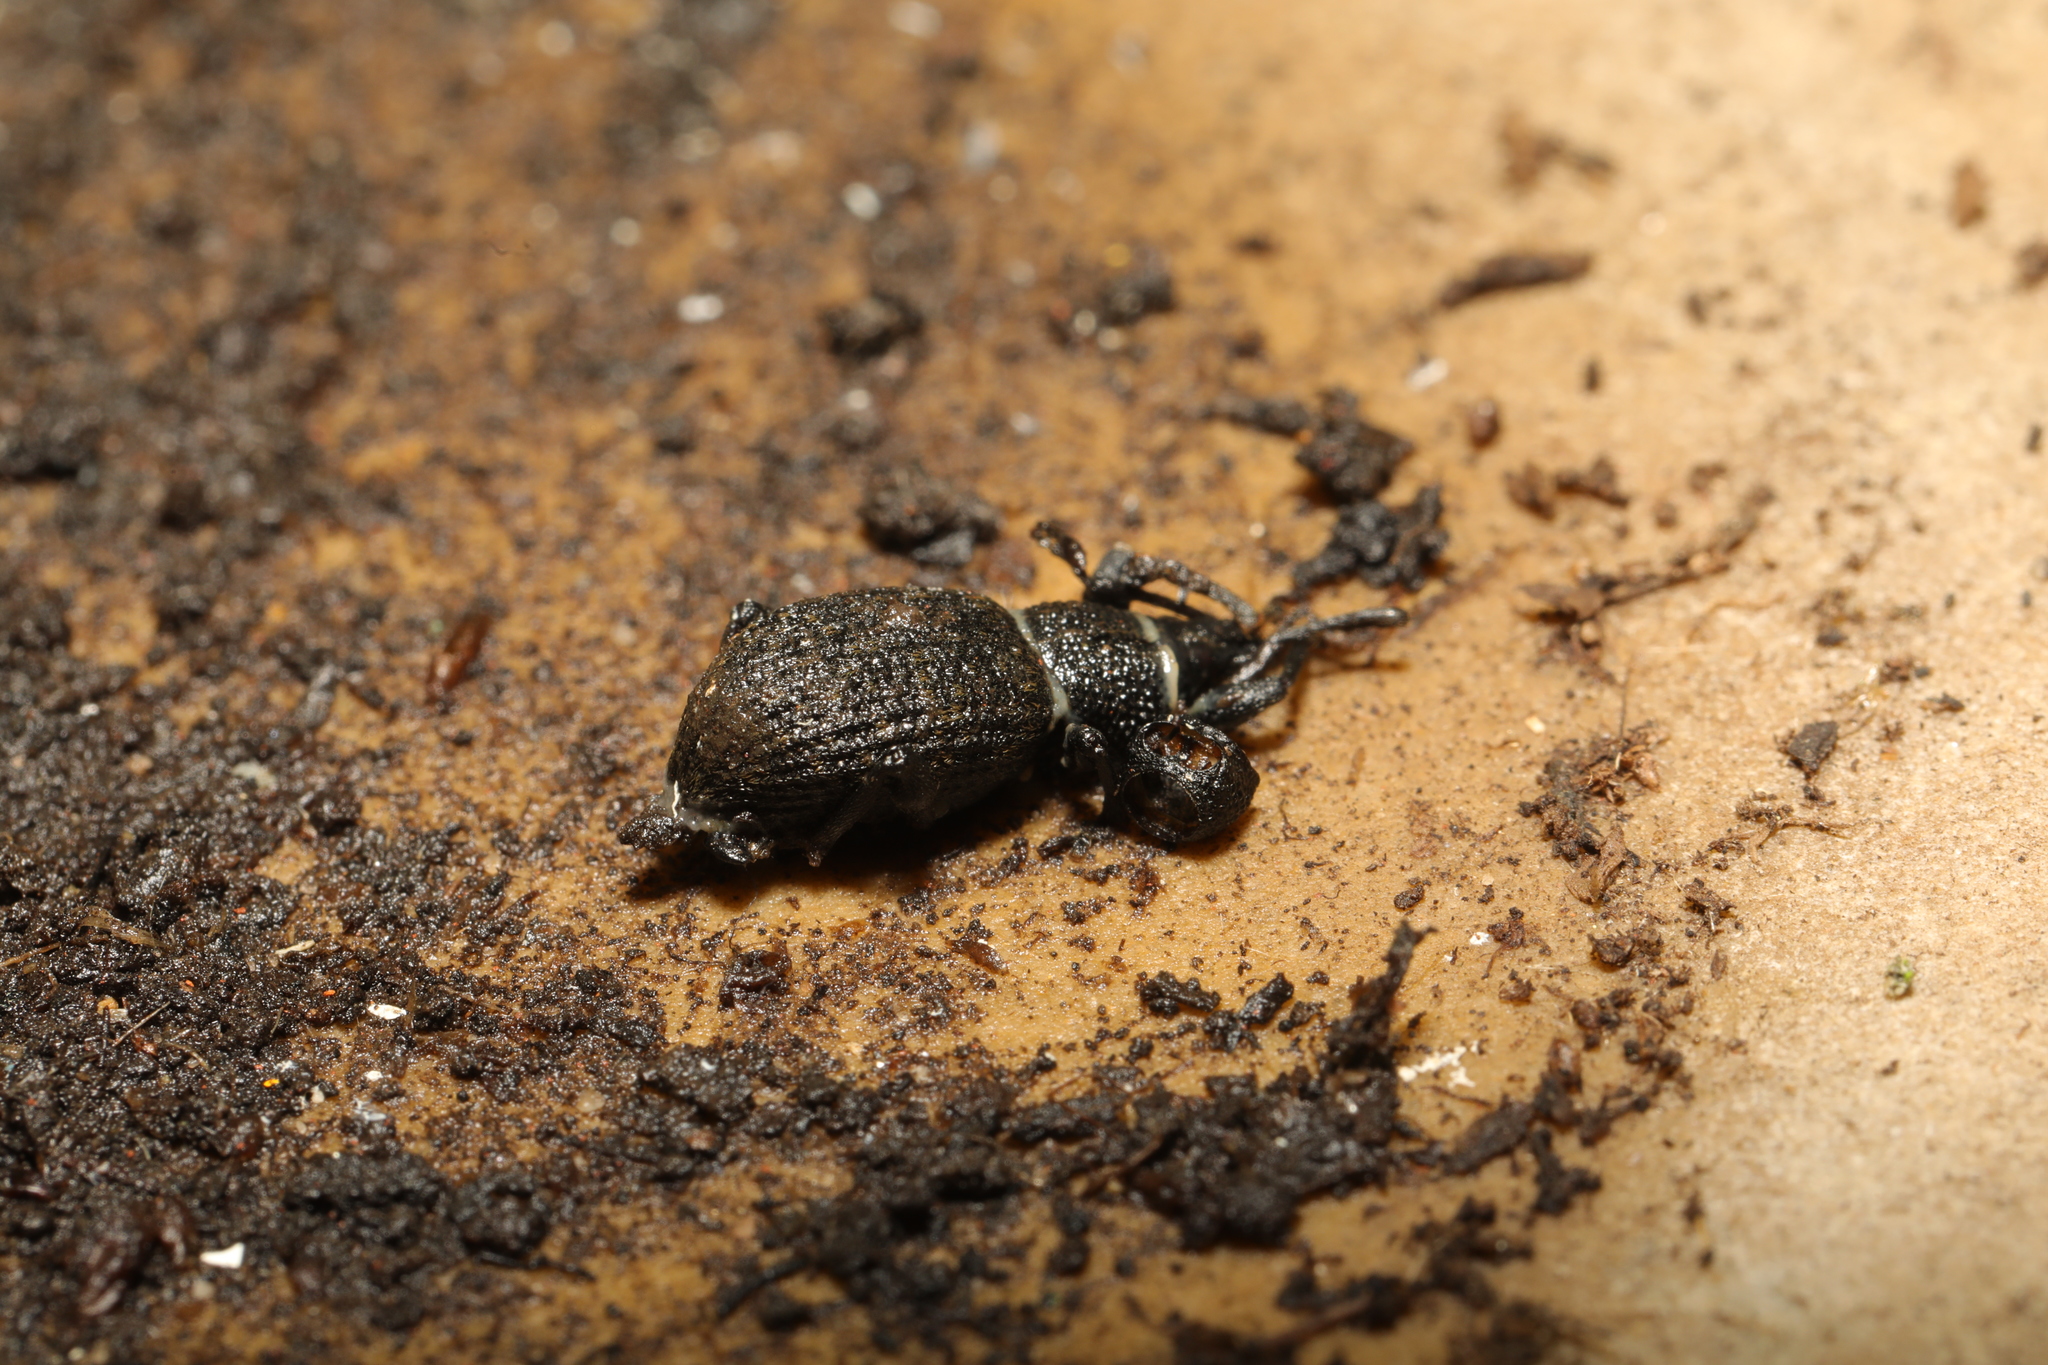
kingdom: Animalia
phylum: Arthropoda
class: Insecta
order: Coleoptera
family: Curculionidae
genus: Otiorhynchus
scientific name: Otiorhynchus sulcatus
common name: Black vine weevil
